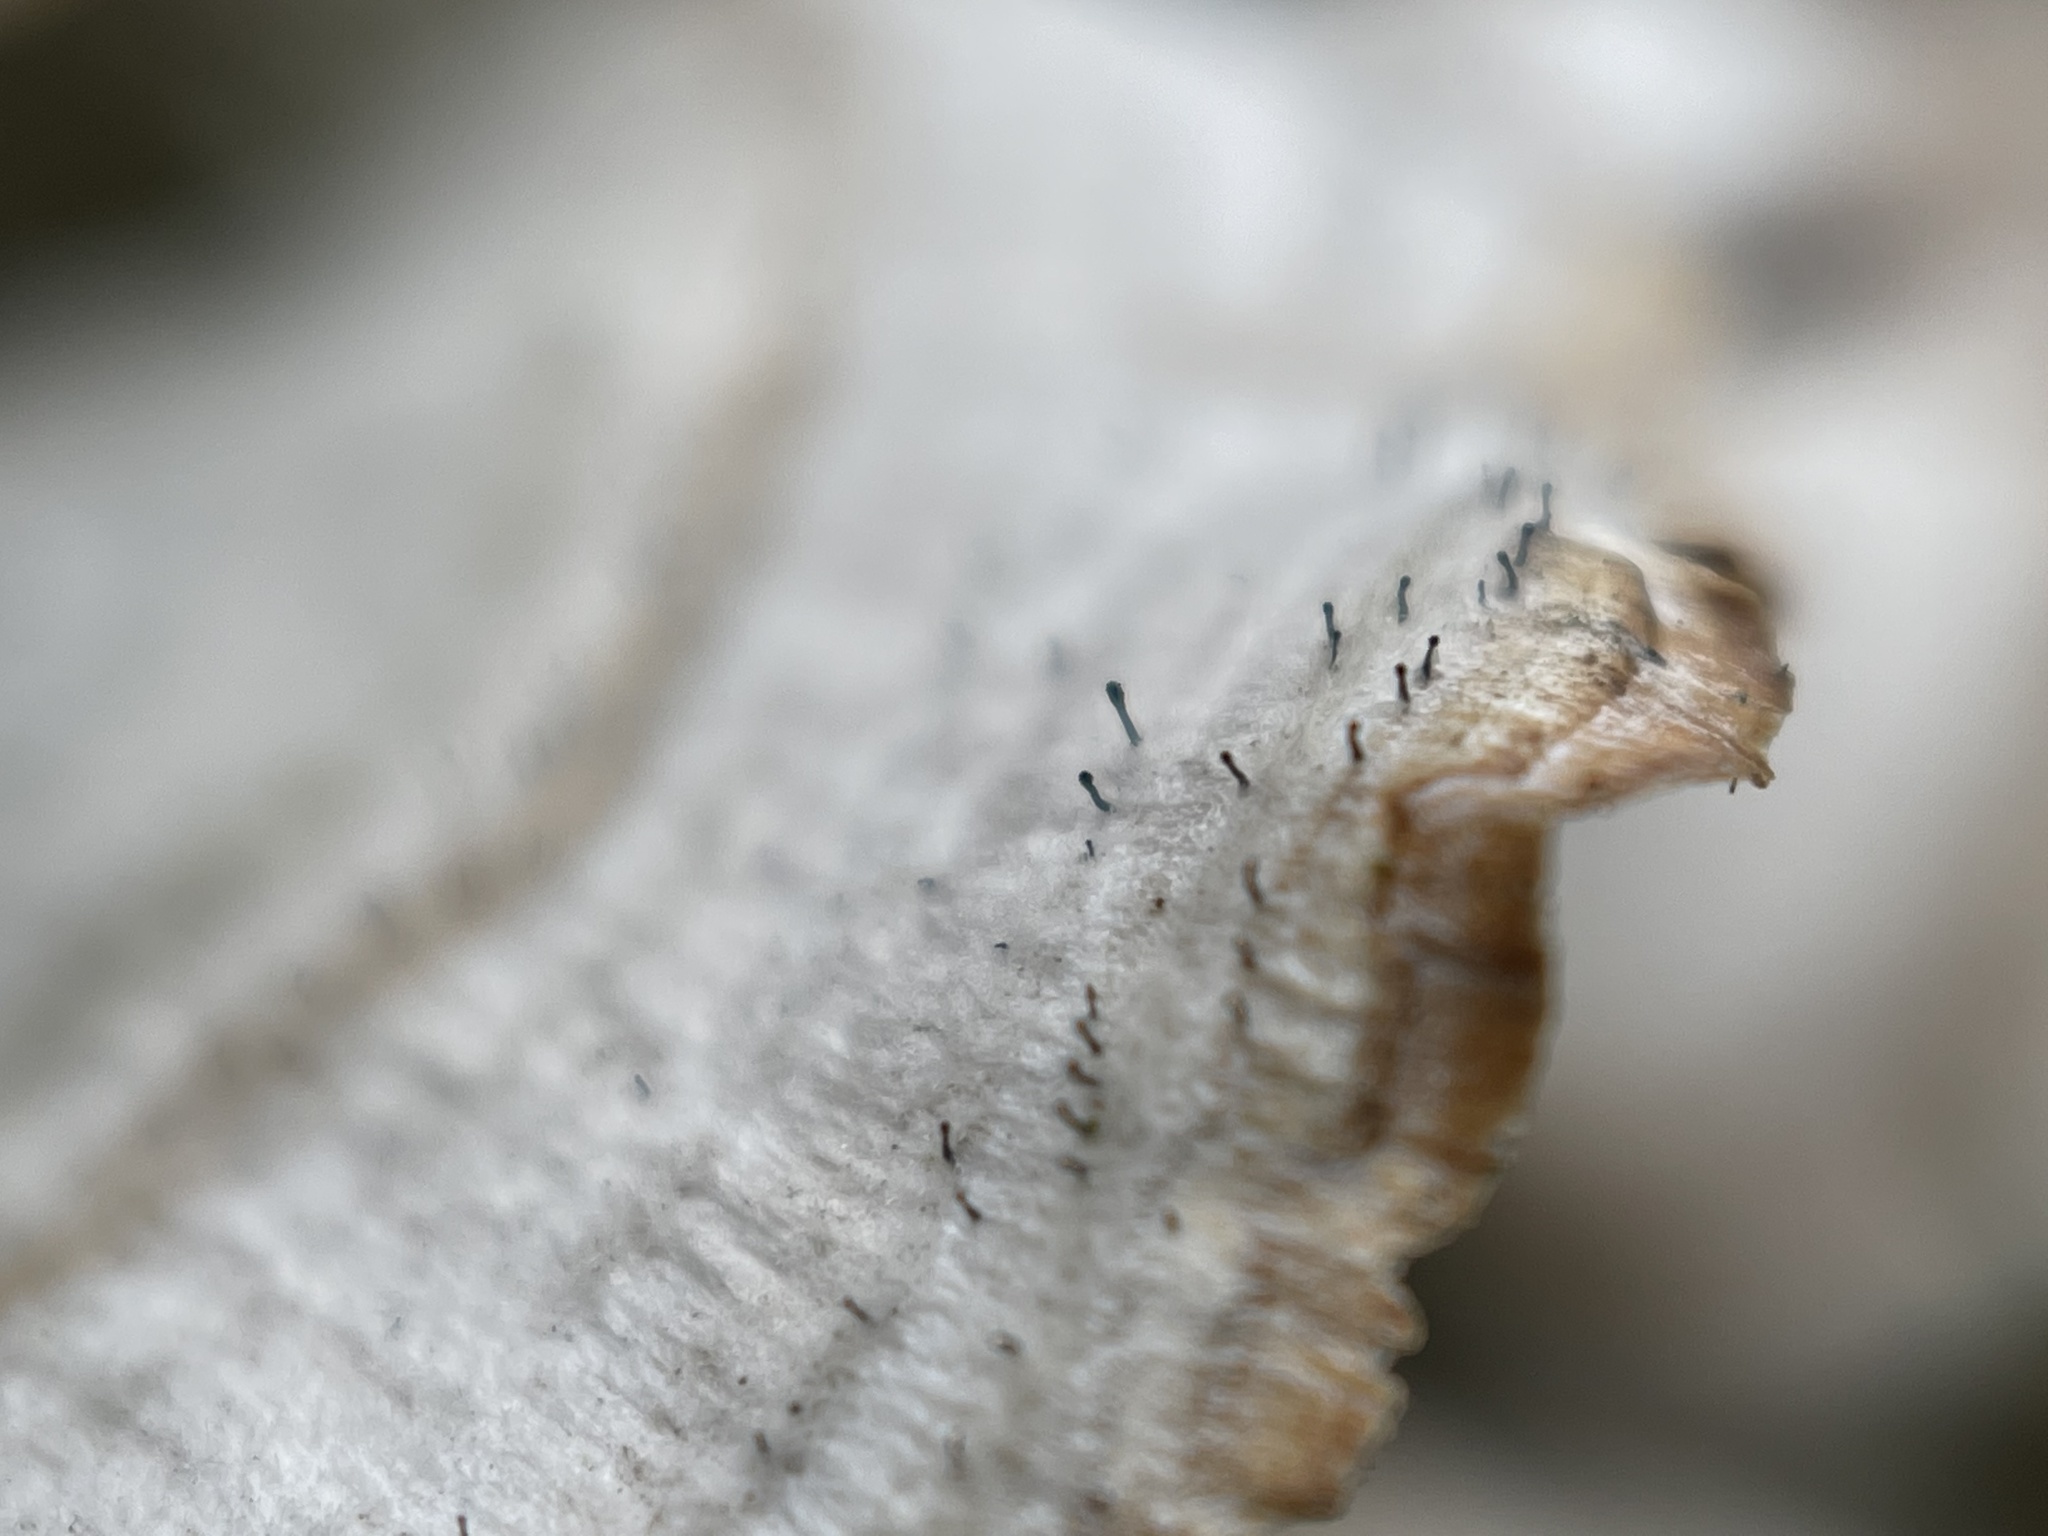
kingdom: Fungi
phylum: Ascomycota
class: Eurotiomycetes
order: Mycocaliciales
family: Mycocaliciaceae
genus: Phaeocalicium
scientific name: Phaeocalicium polyporaeum
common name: Fairy pins
